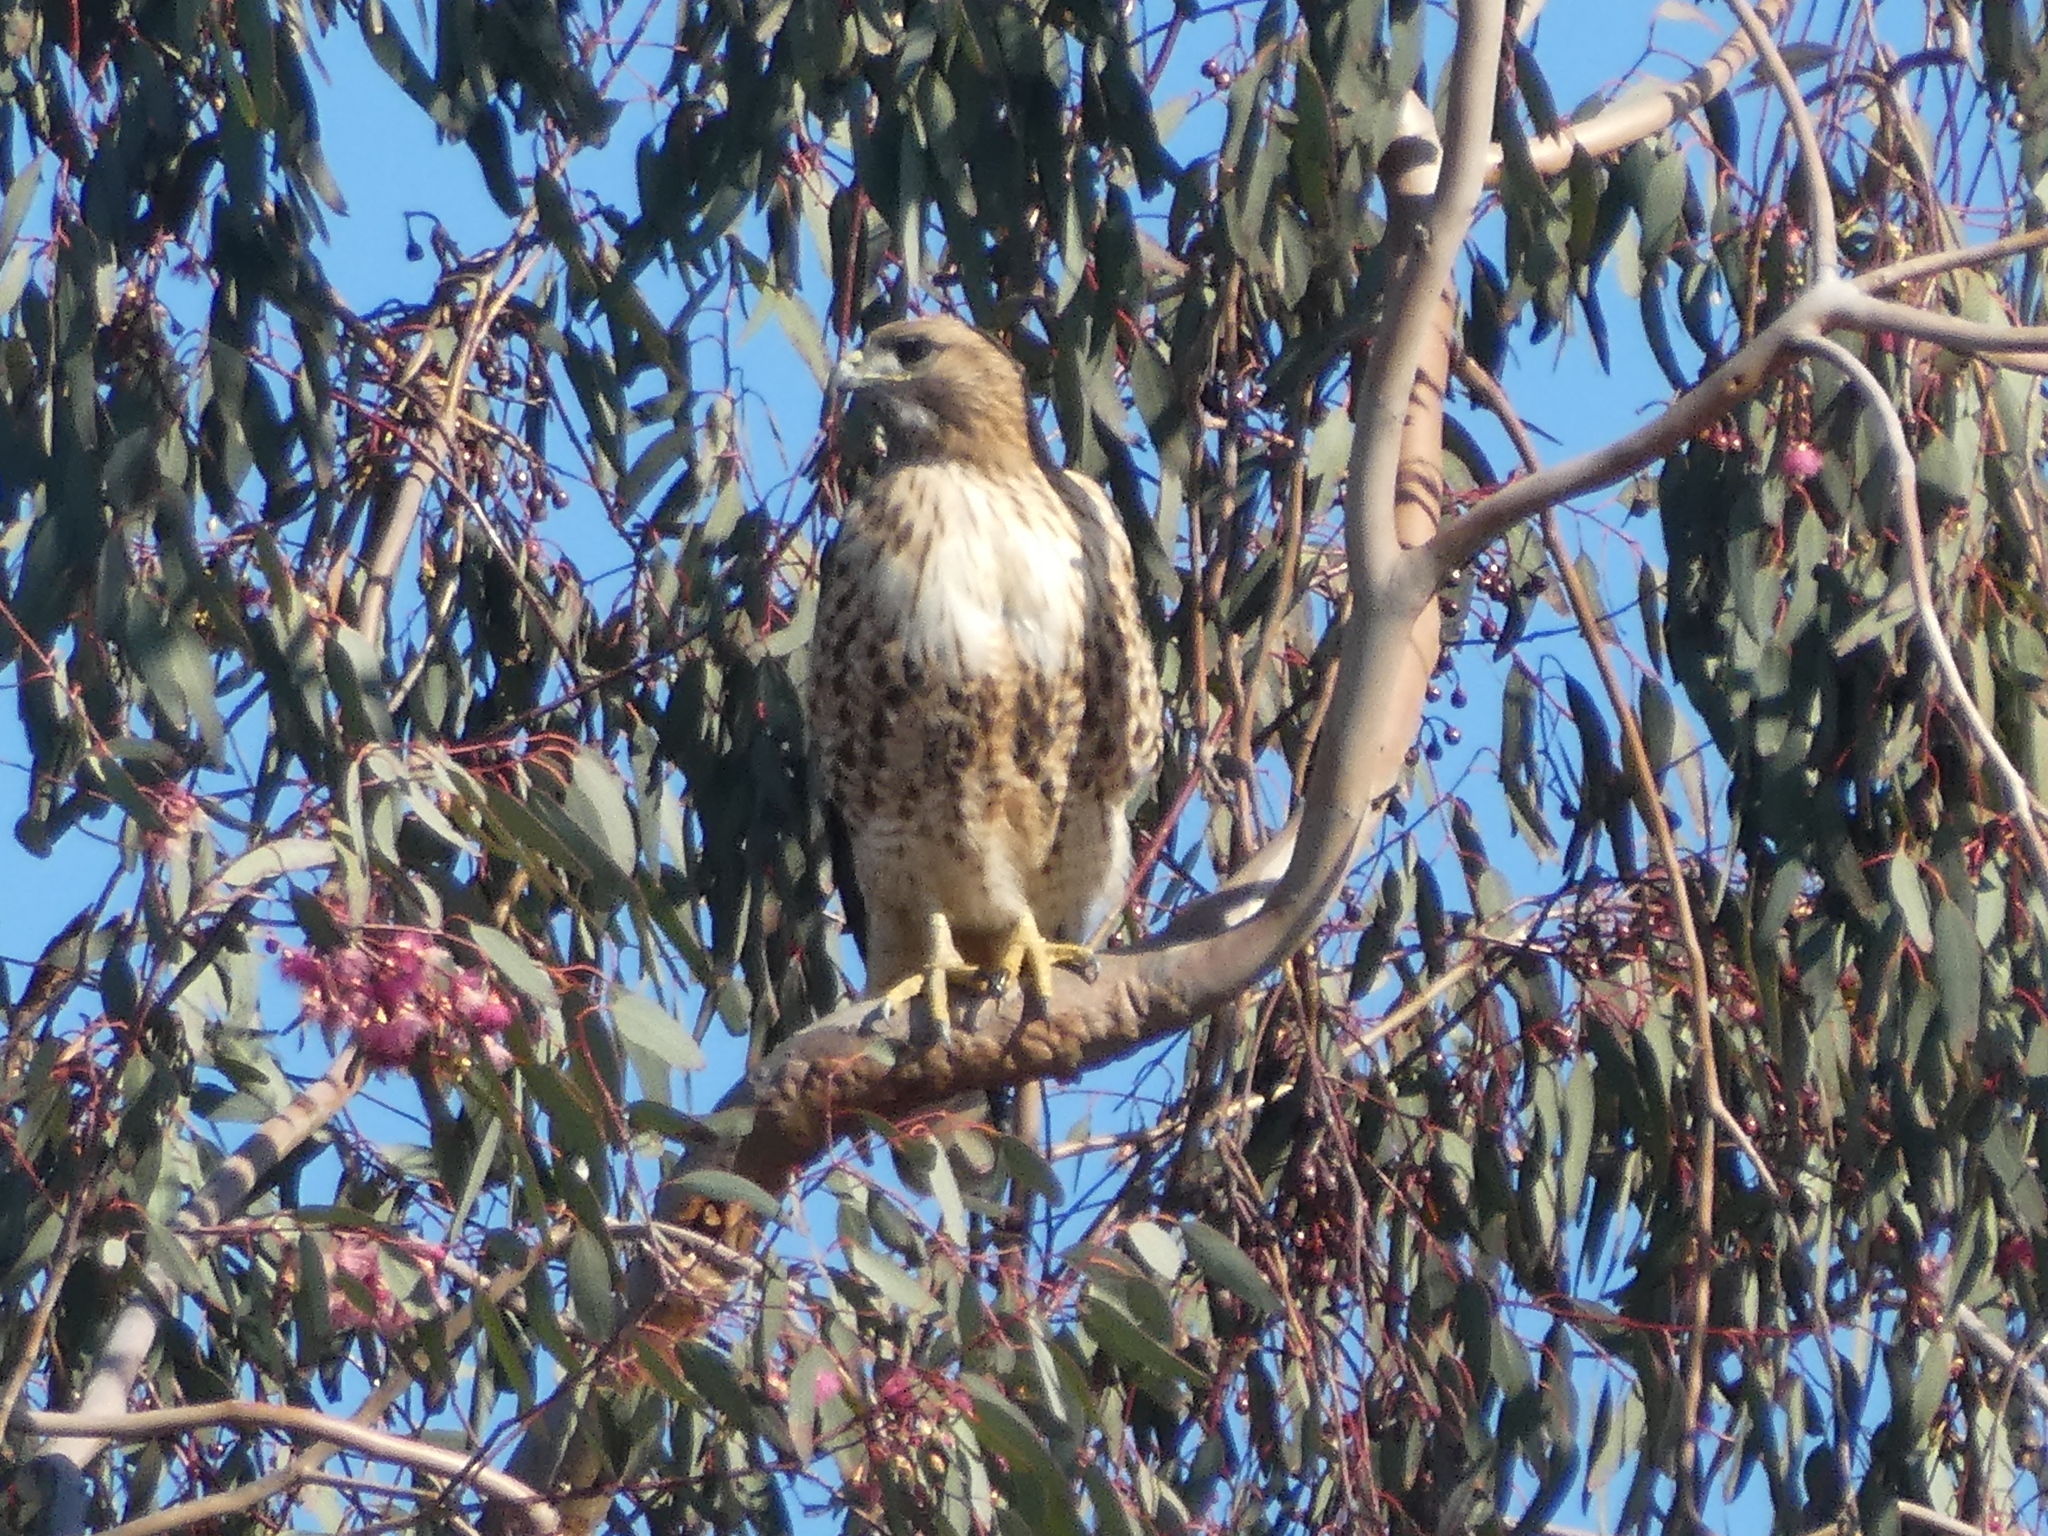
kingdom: Animalia
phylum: Chordata
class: Aves
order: Accipitriformes
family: Accipitridae
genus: Buteo
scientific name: Buteo jamaicensis
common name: Red-tailed hawk
